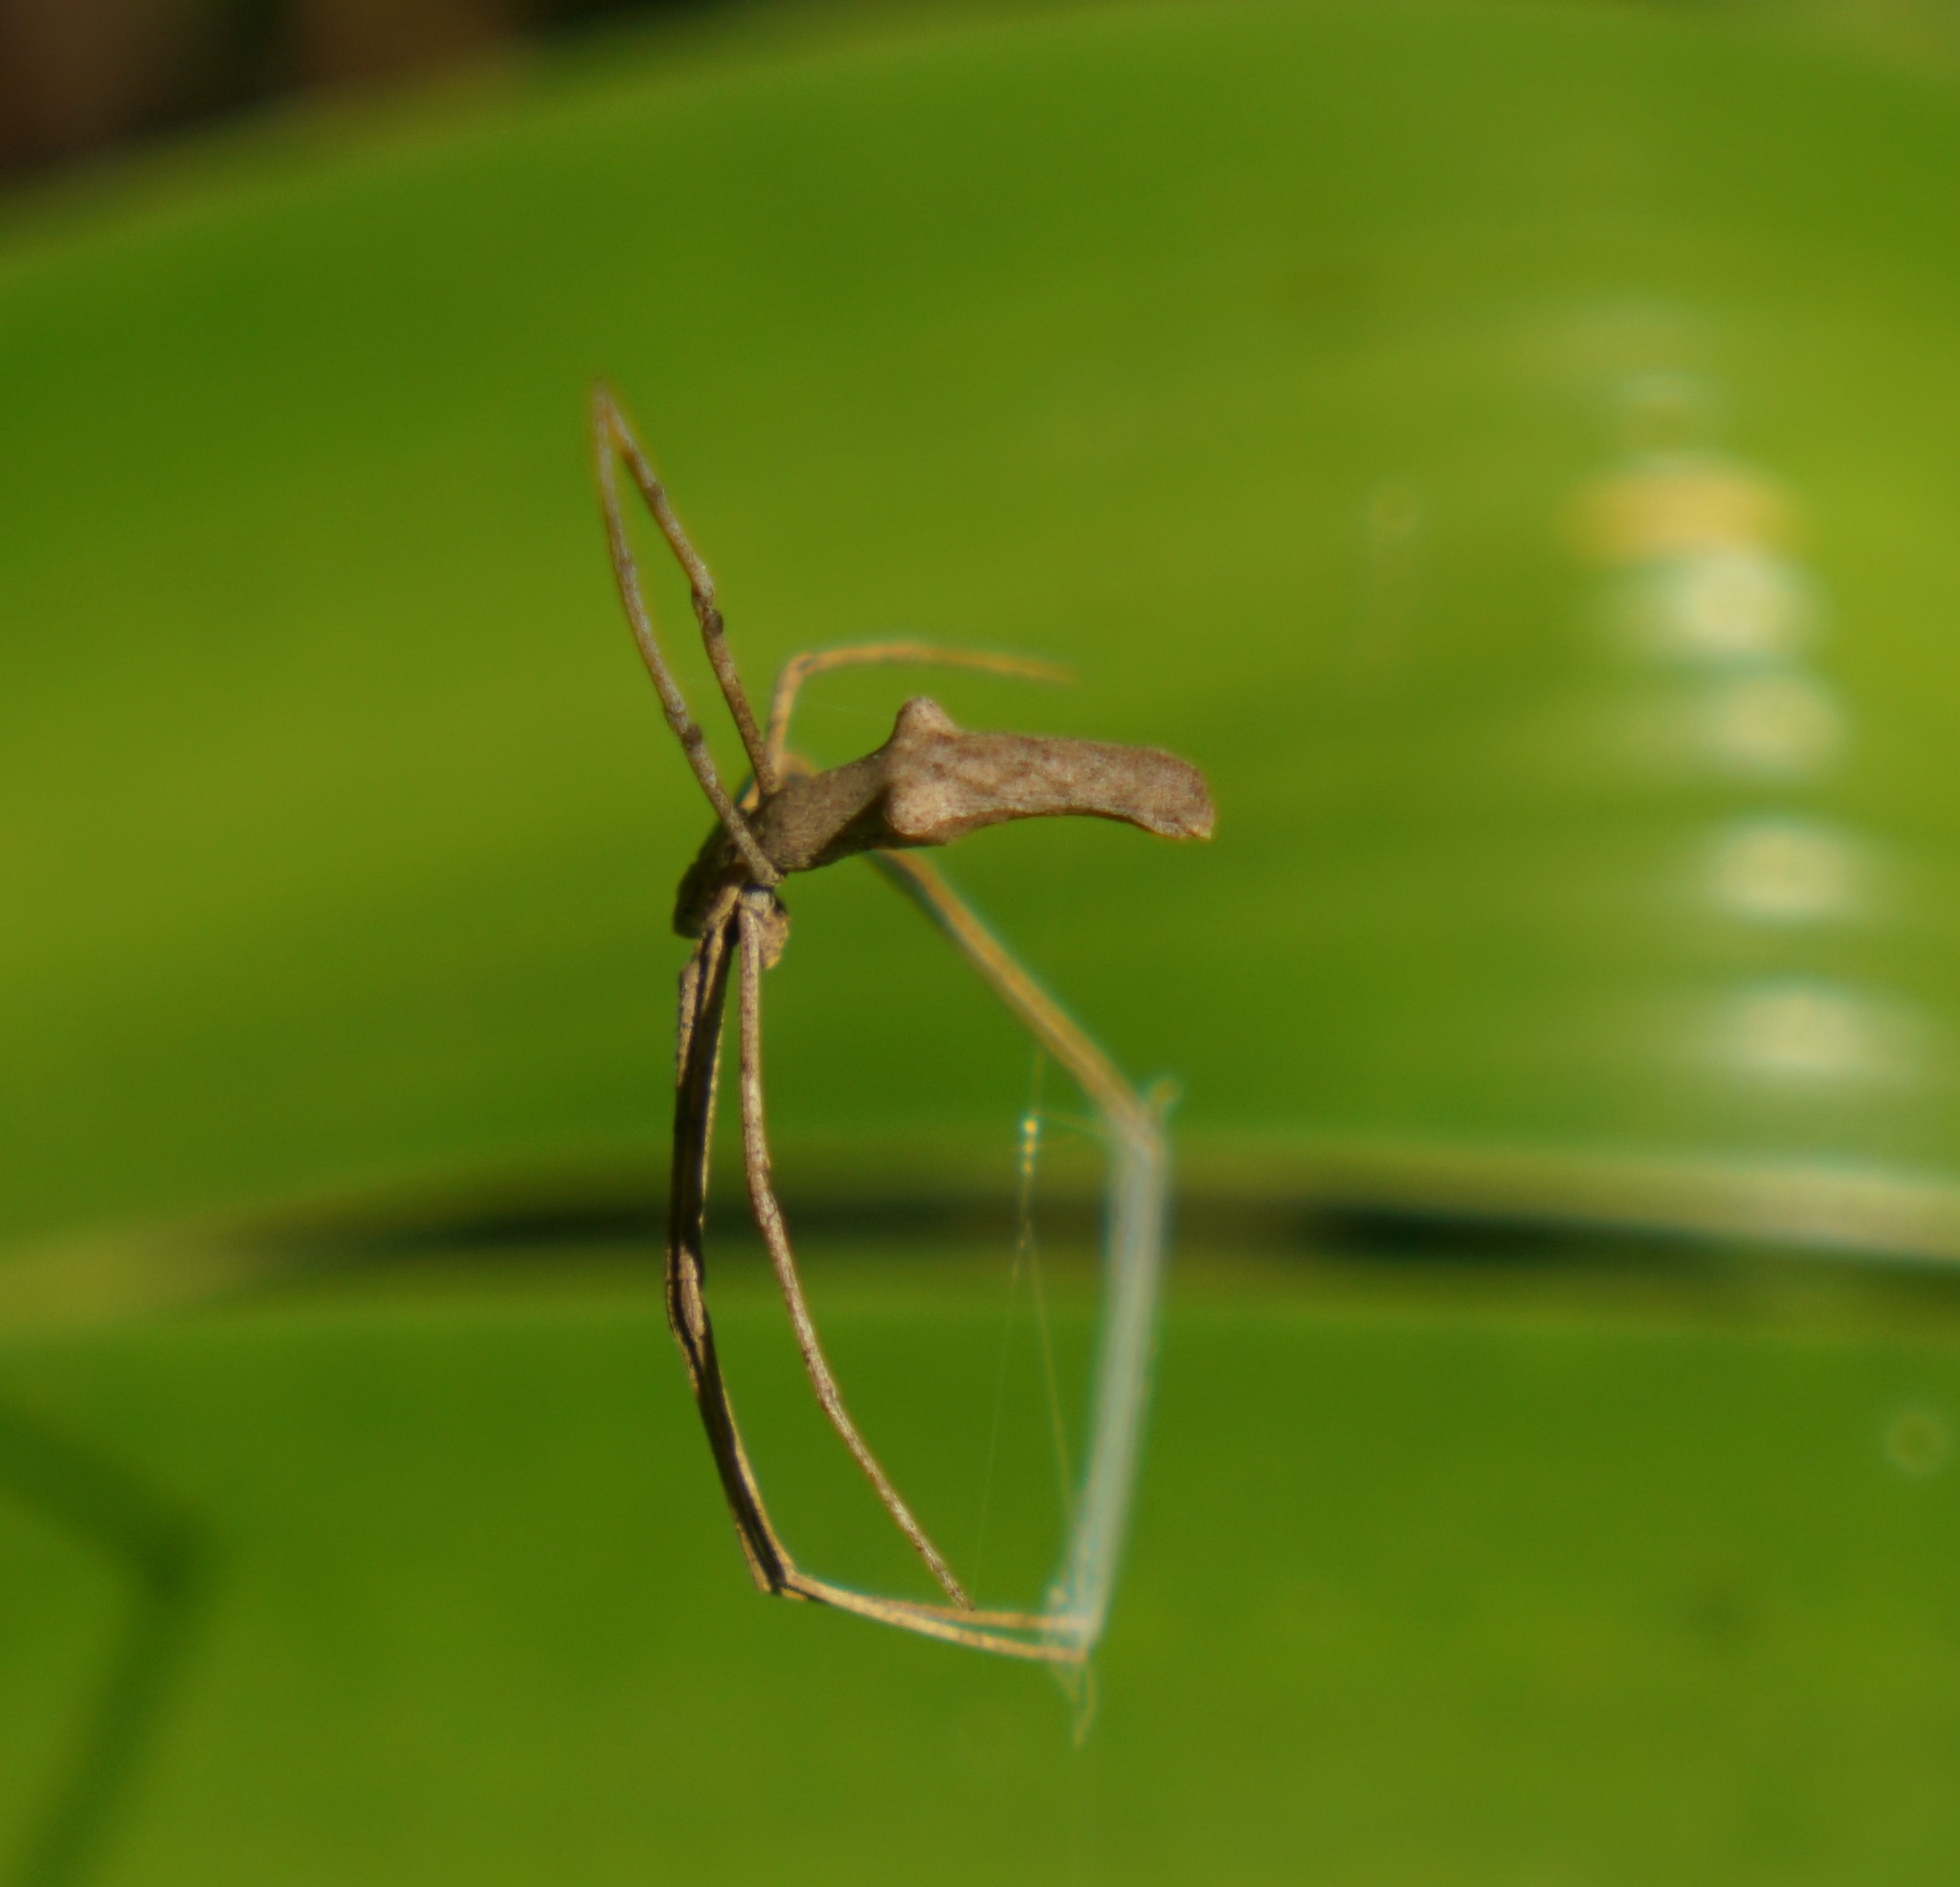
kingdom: Animalia
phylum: Arthropoda
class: Arachnida
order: Araneae
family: Deinopidae
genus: Deinopis
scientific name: Deinopis subrufa
